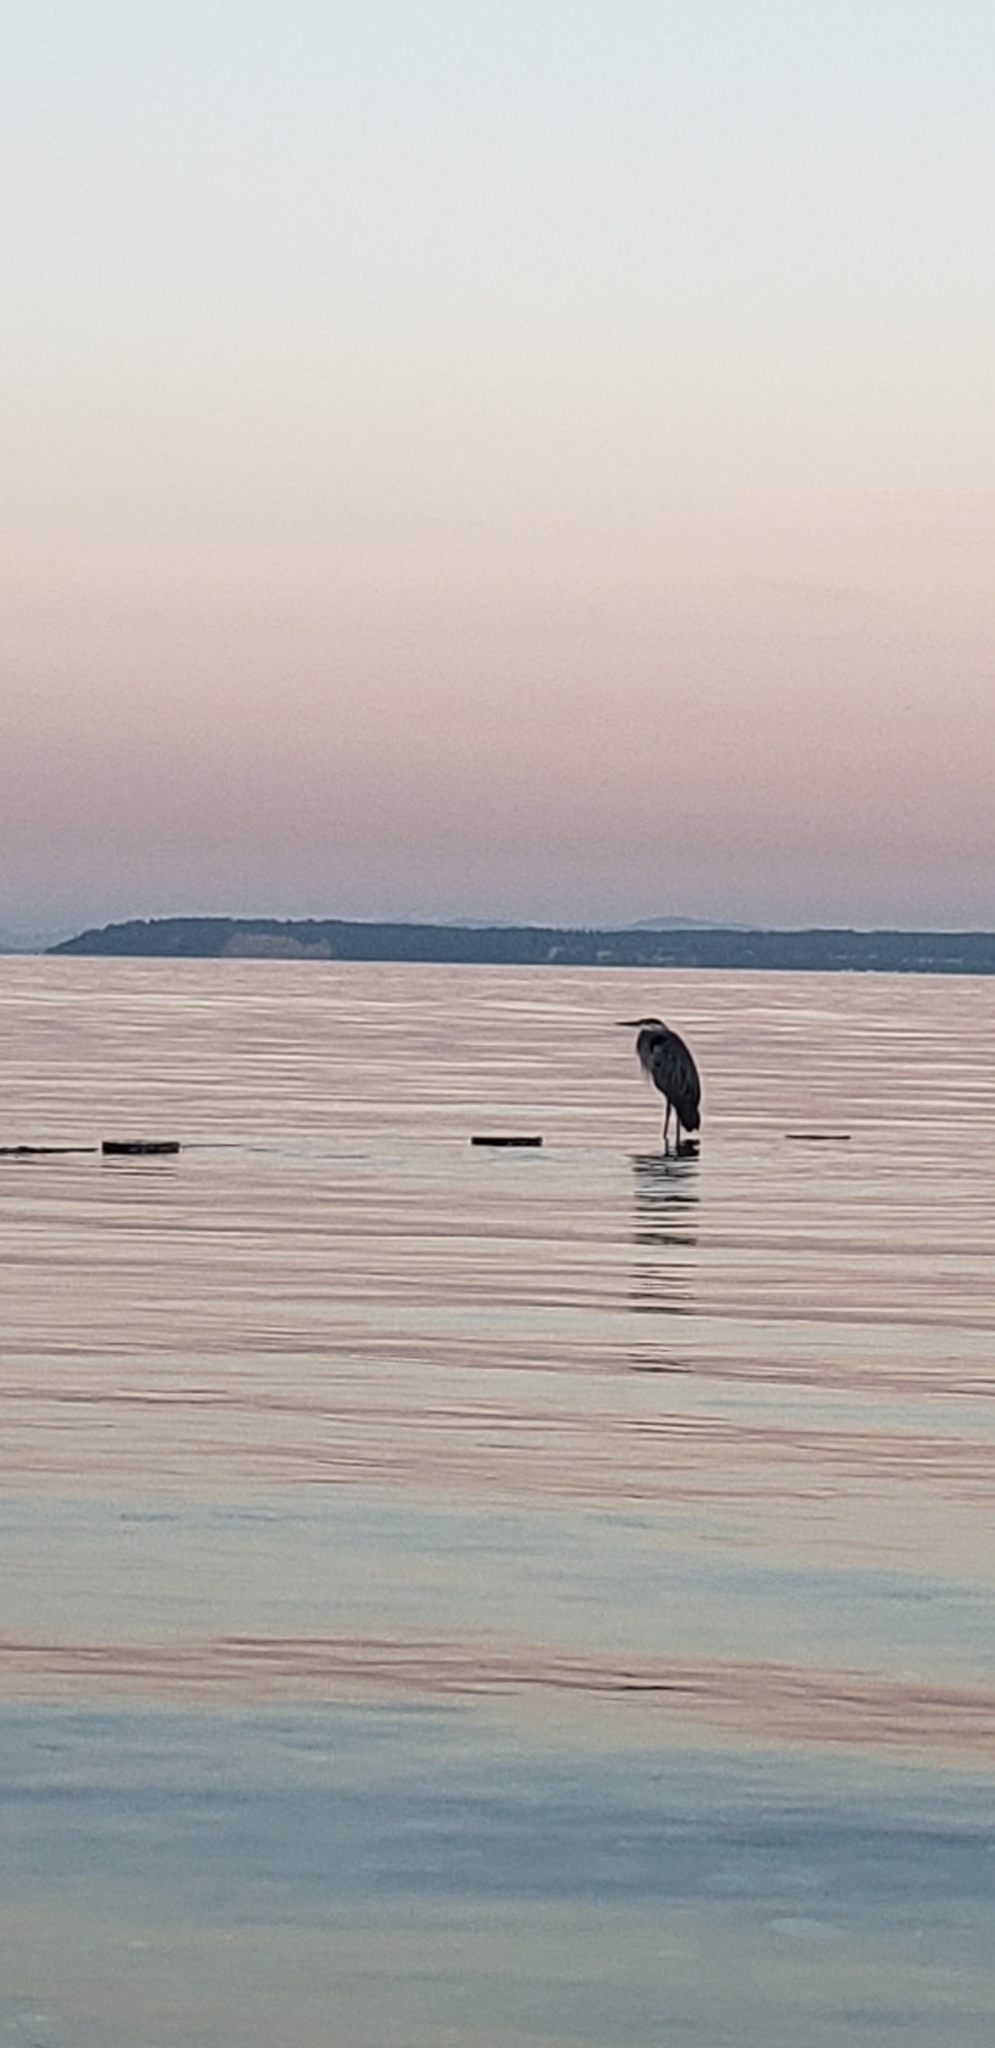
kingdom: Animalia
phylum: Chordata
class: Aves
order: Pelecaniformes
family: Ardeidae
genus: Ardea
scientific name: Ardea herodias
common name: Great blue heron
